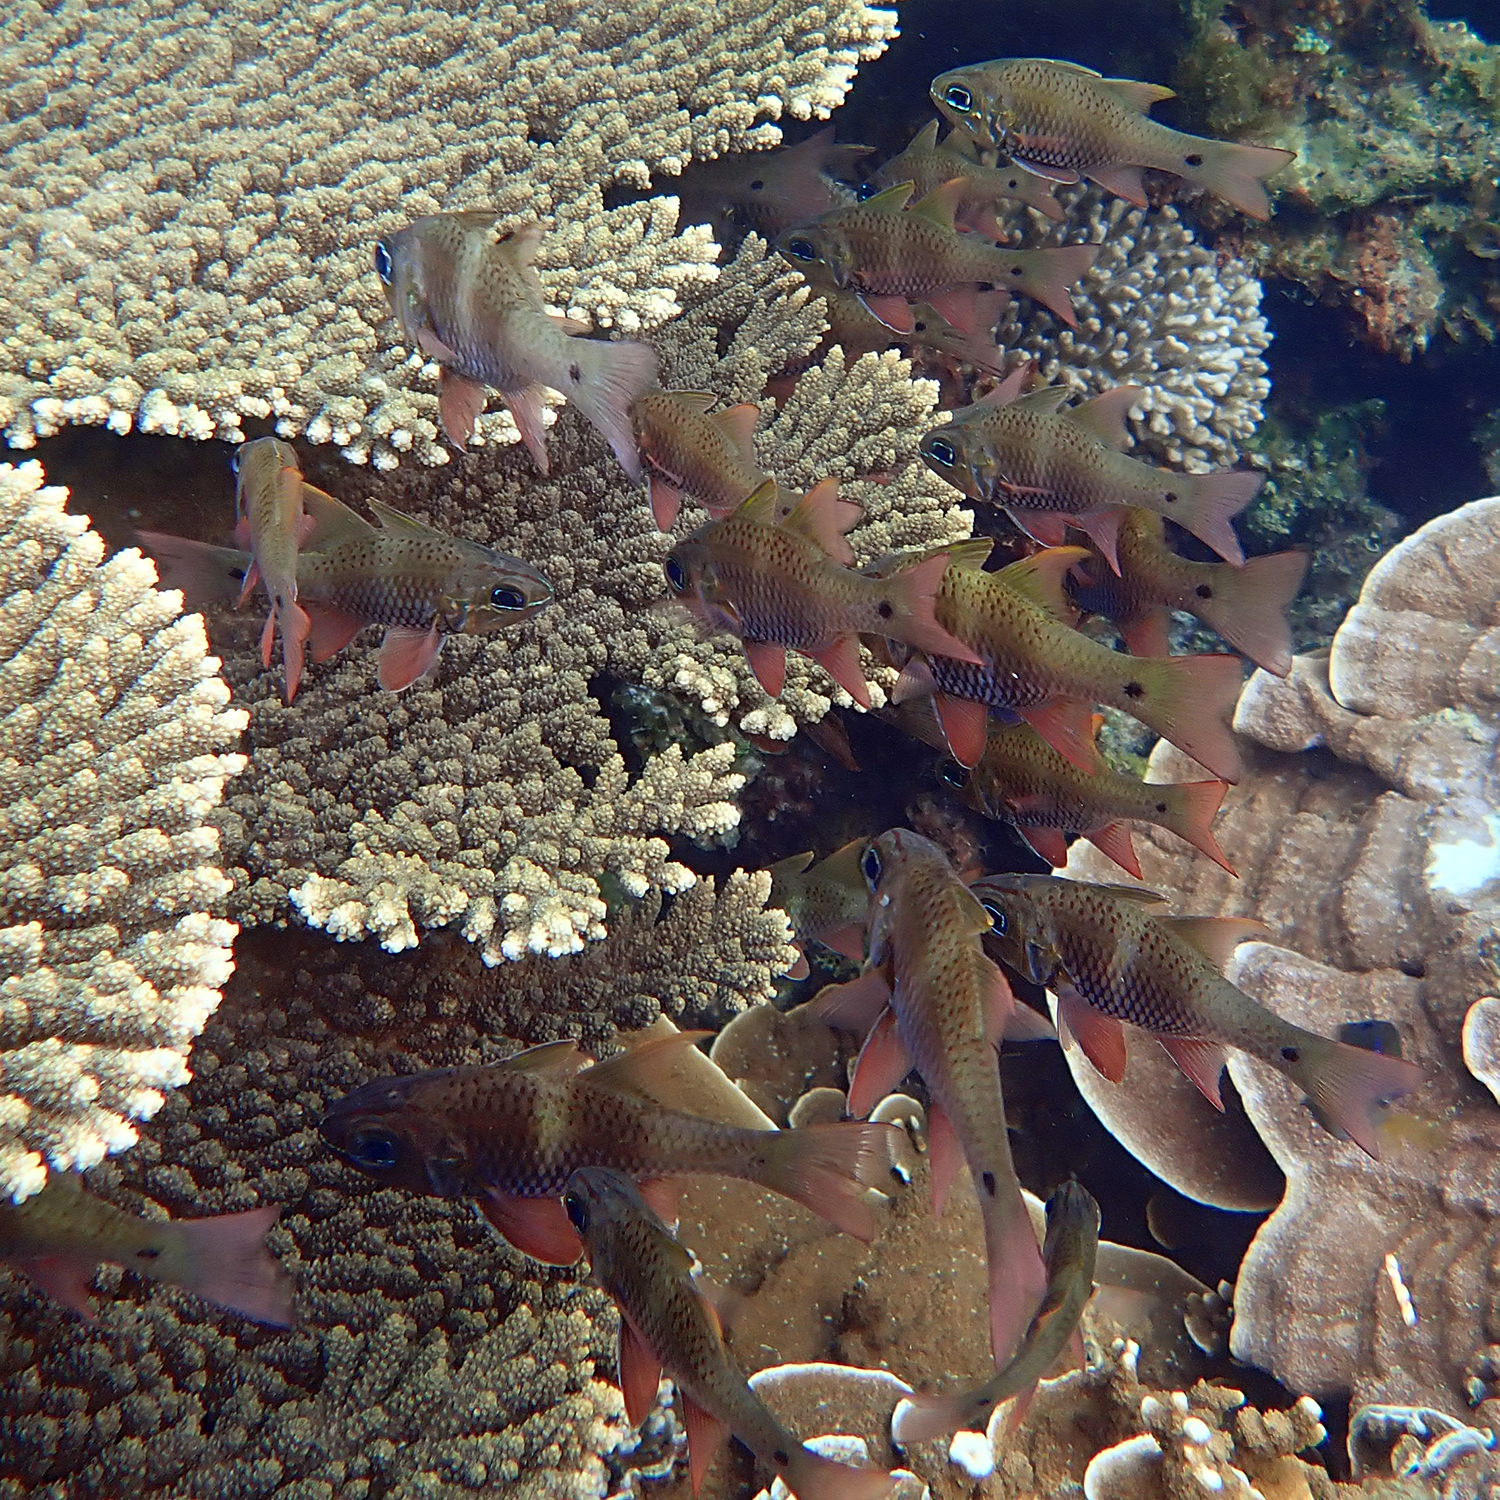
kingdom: Animalia
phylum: Chordata
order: Perciformes
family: Apogonidae
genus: Ostorhinchus
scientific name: Ostorhinchus norfolcensis
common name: Norfolk cardinalfish
